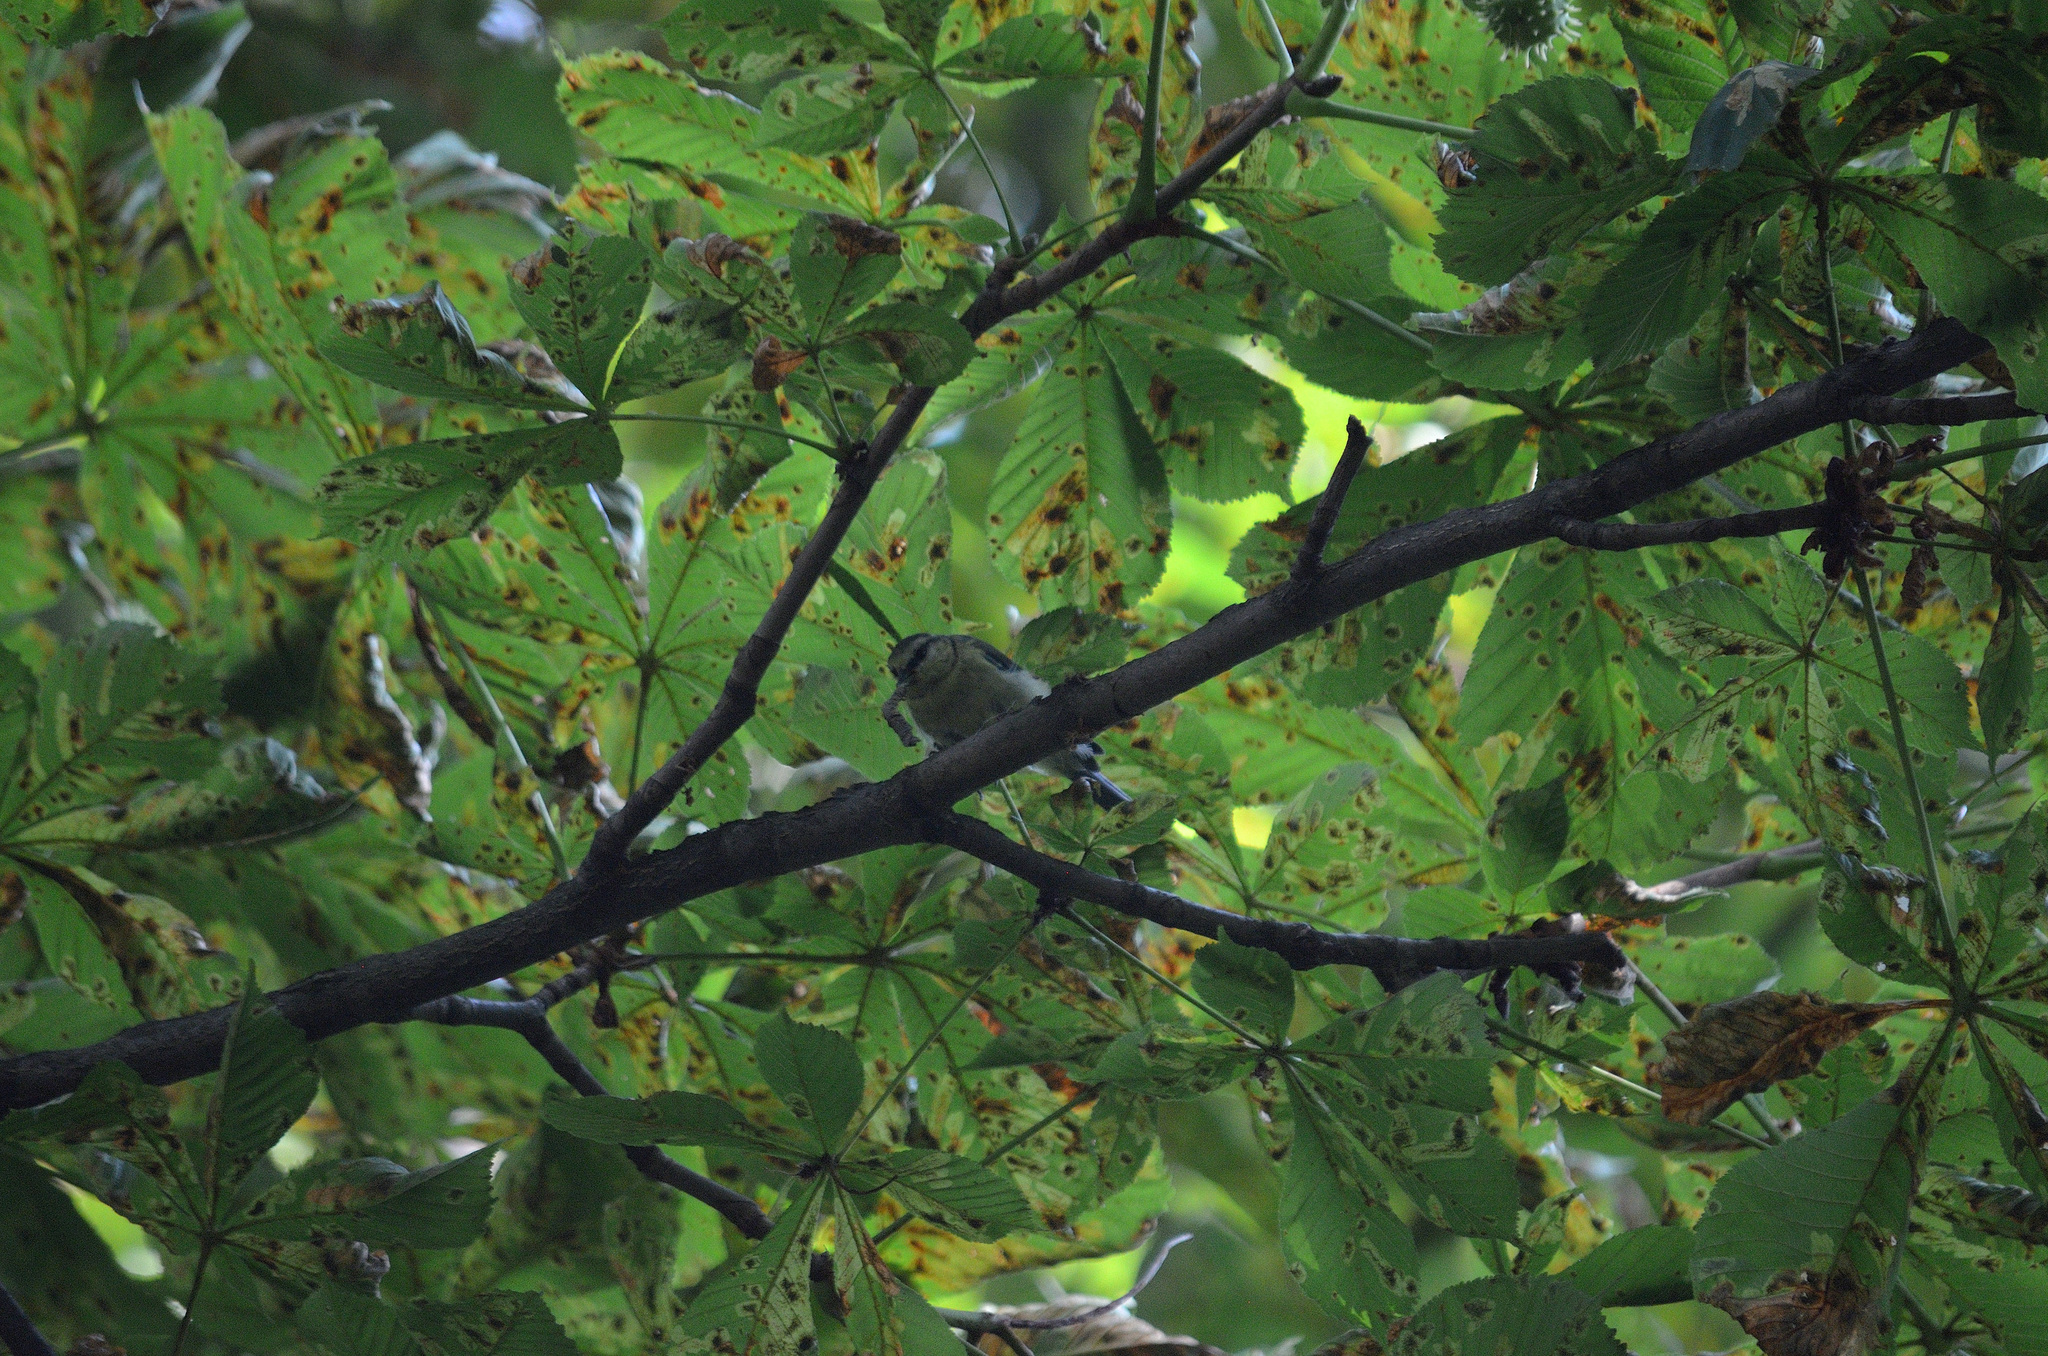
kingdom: Animalia
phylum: Chordata
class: Aves
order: Passeriformes
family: Paridae
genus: Cyanistes
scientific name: Cyanistes caeruleus
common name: Eurasian blue tit
